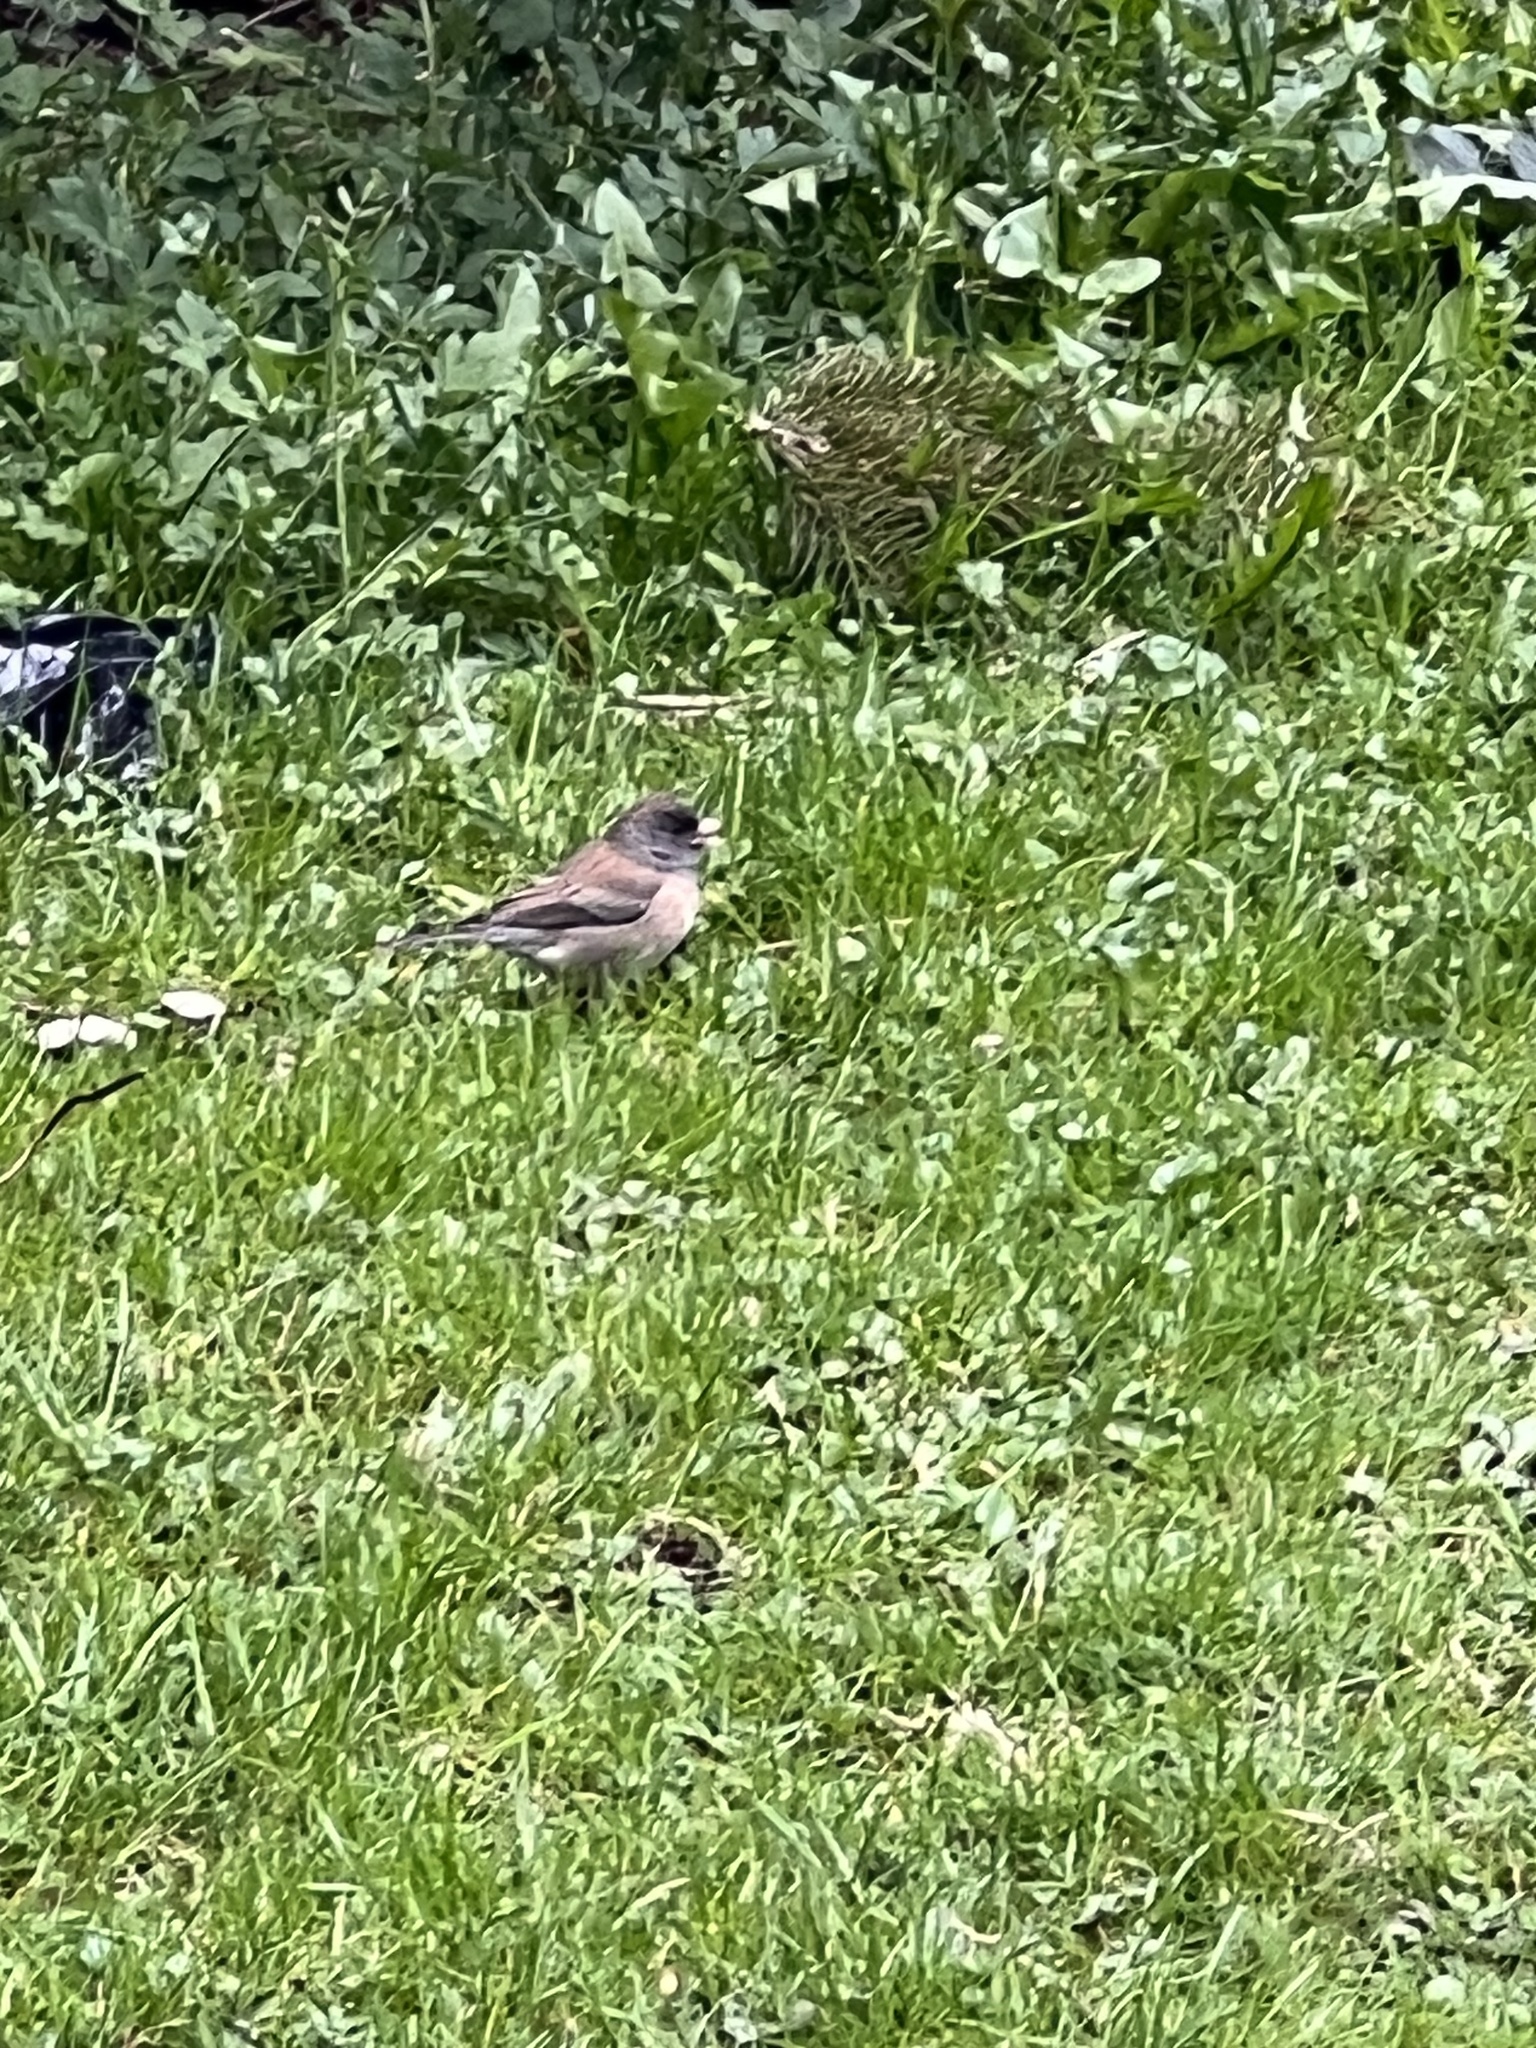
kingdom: Animalia
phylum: Chordata
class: Aves
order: Passeriformes
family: Passerellidae
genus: Junco
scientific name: Junco hyemalis
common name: Dark-eyed junco
